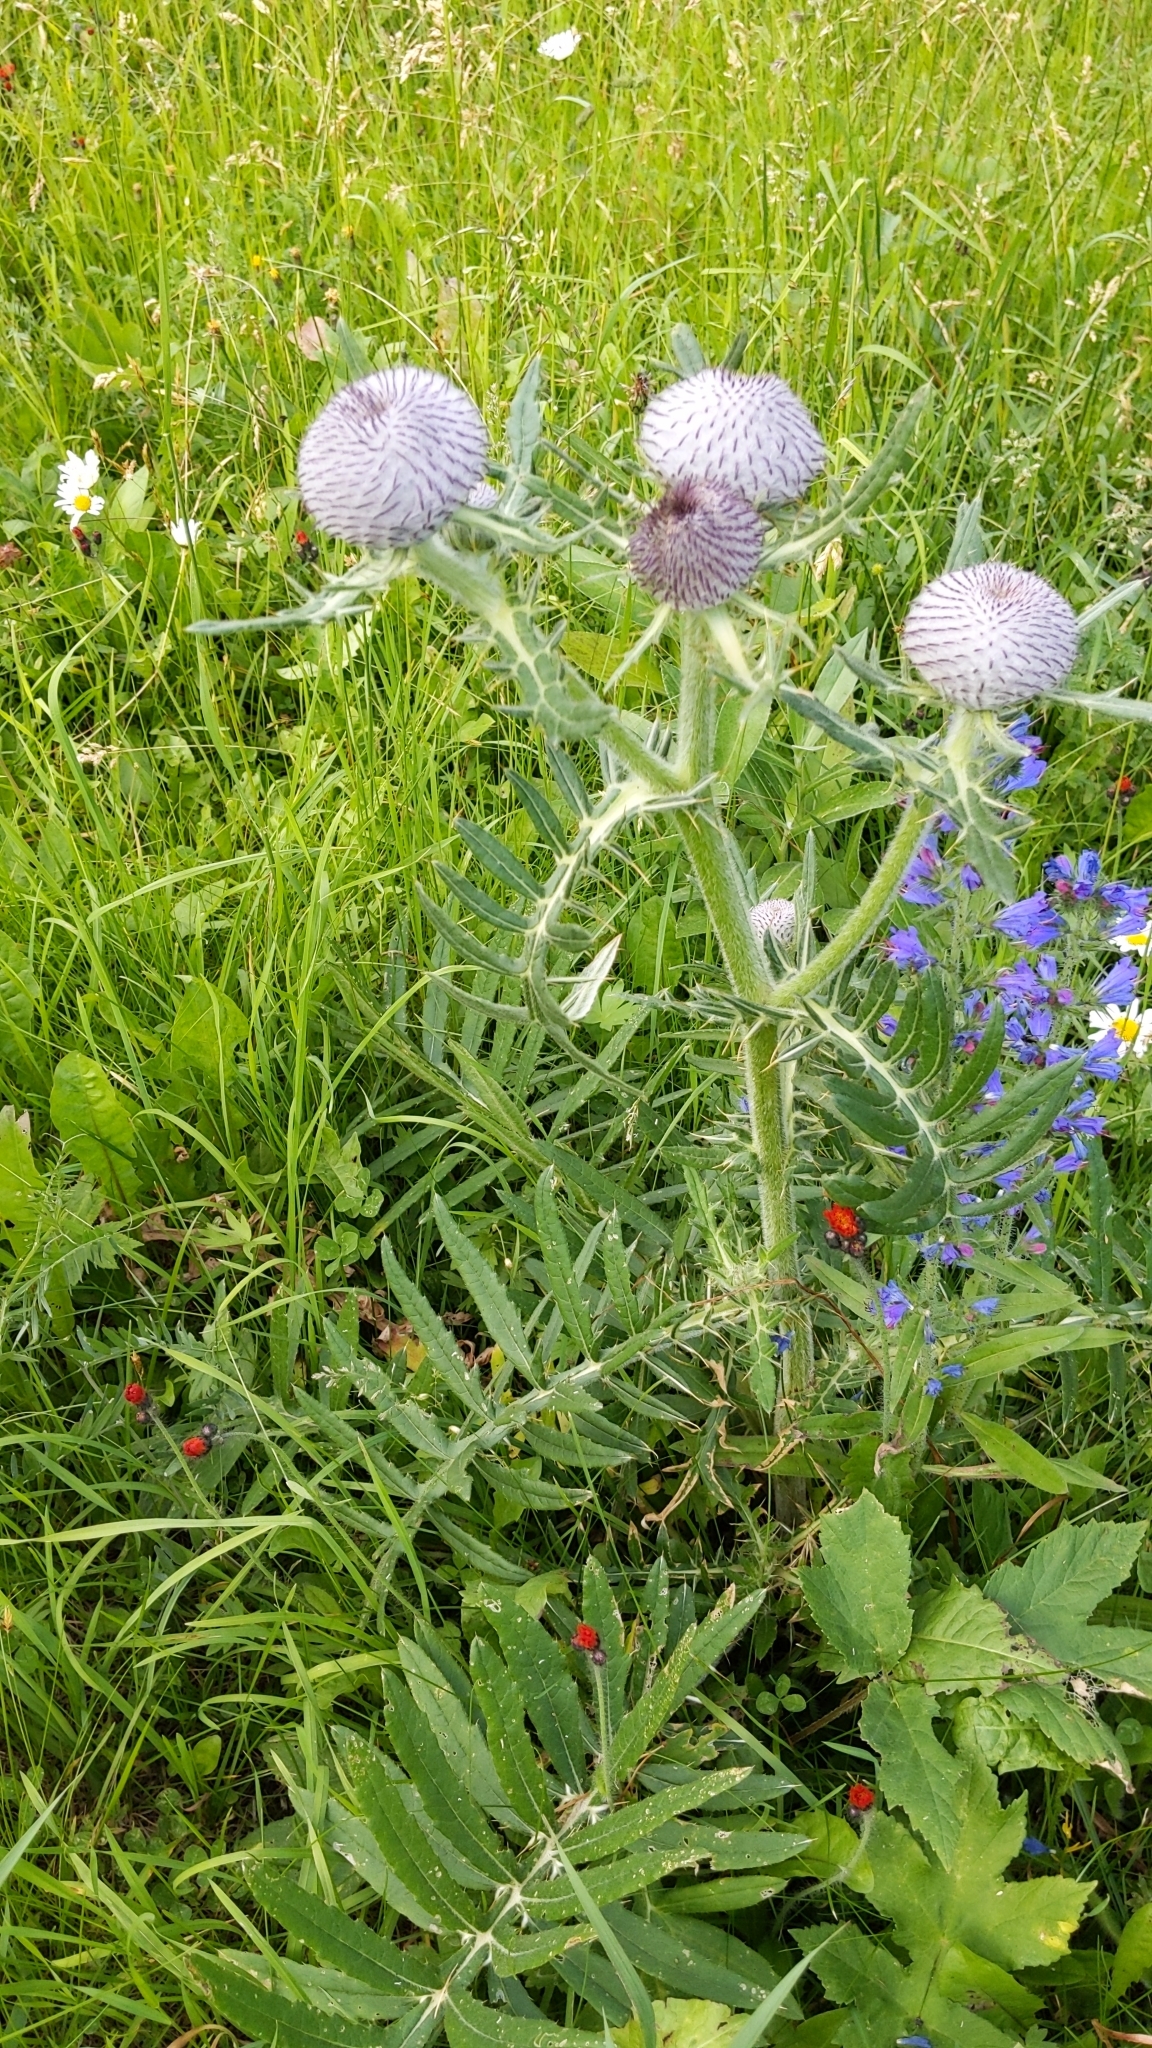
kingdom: Plantae
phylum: Tracheophyta
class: Magnoliopsida
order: Asterales
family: Asteraceae
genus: Lophiolepis
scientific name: Lophiolepis eriophora
